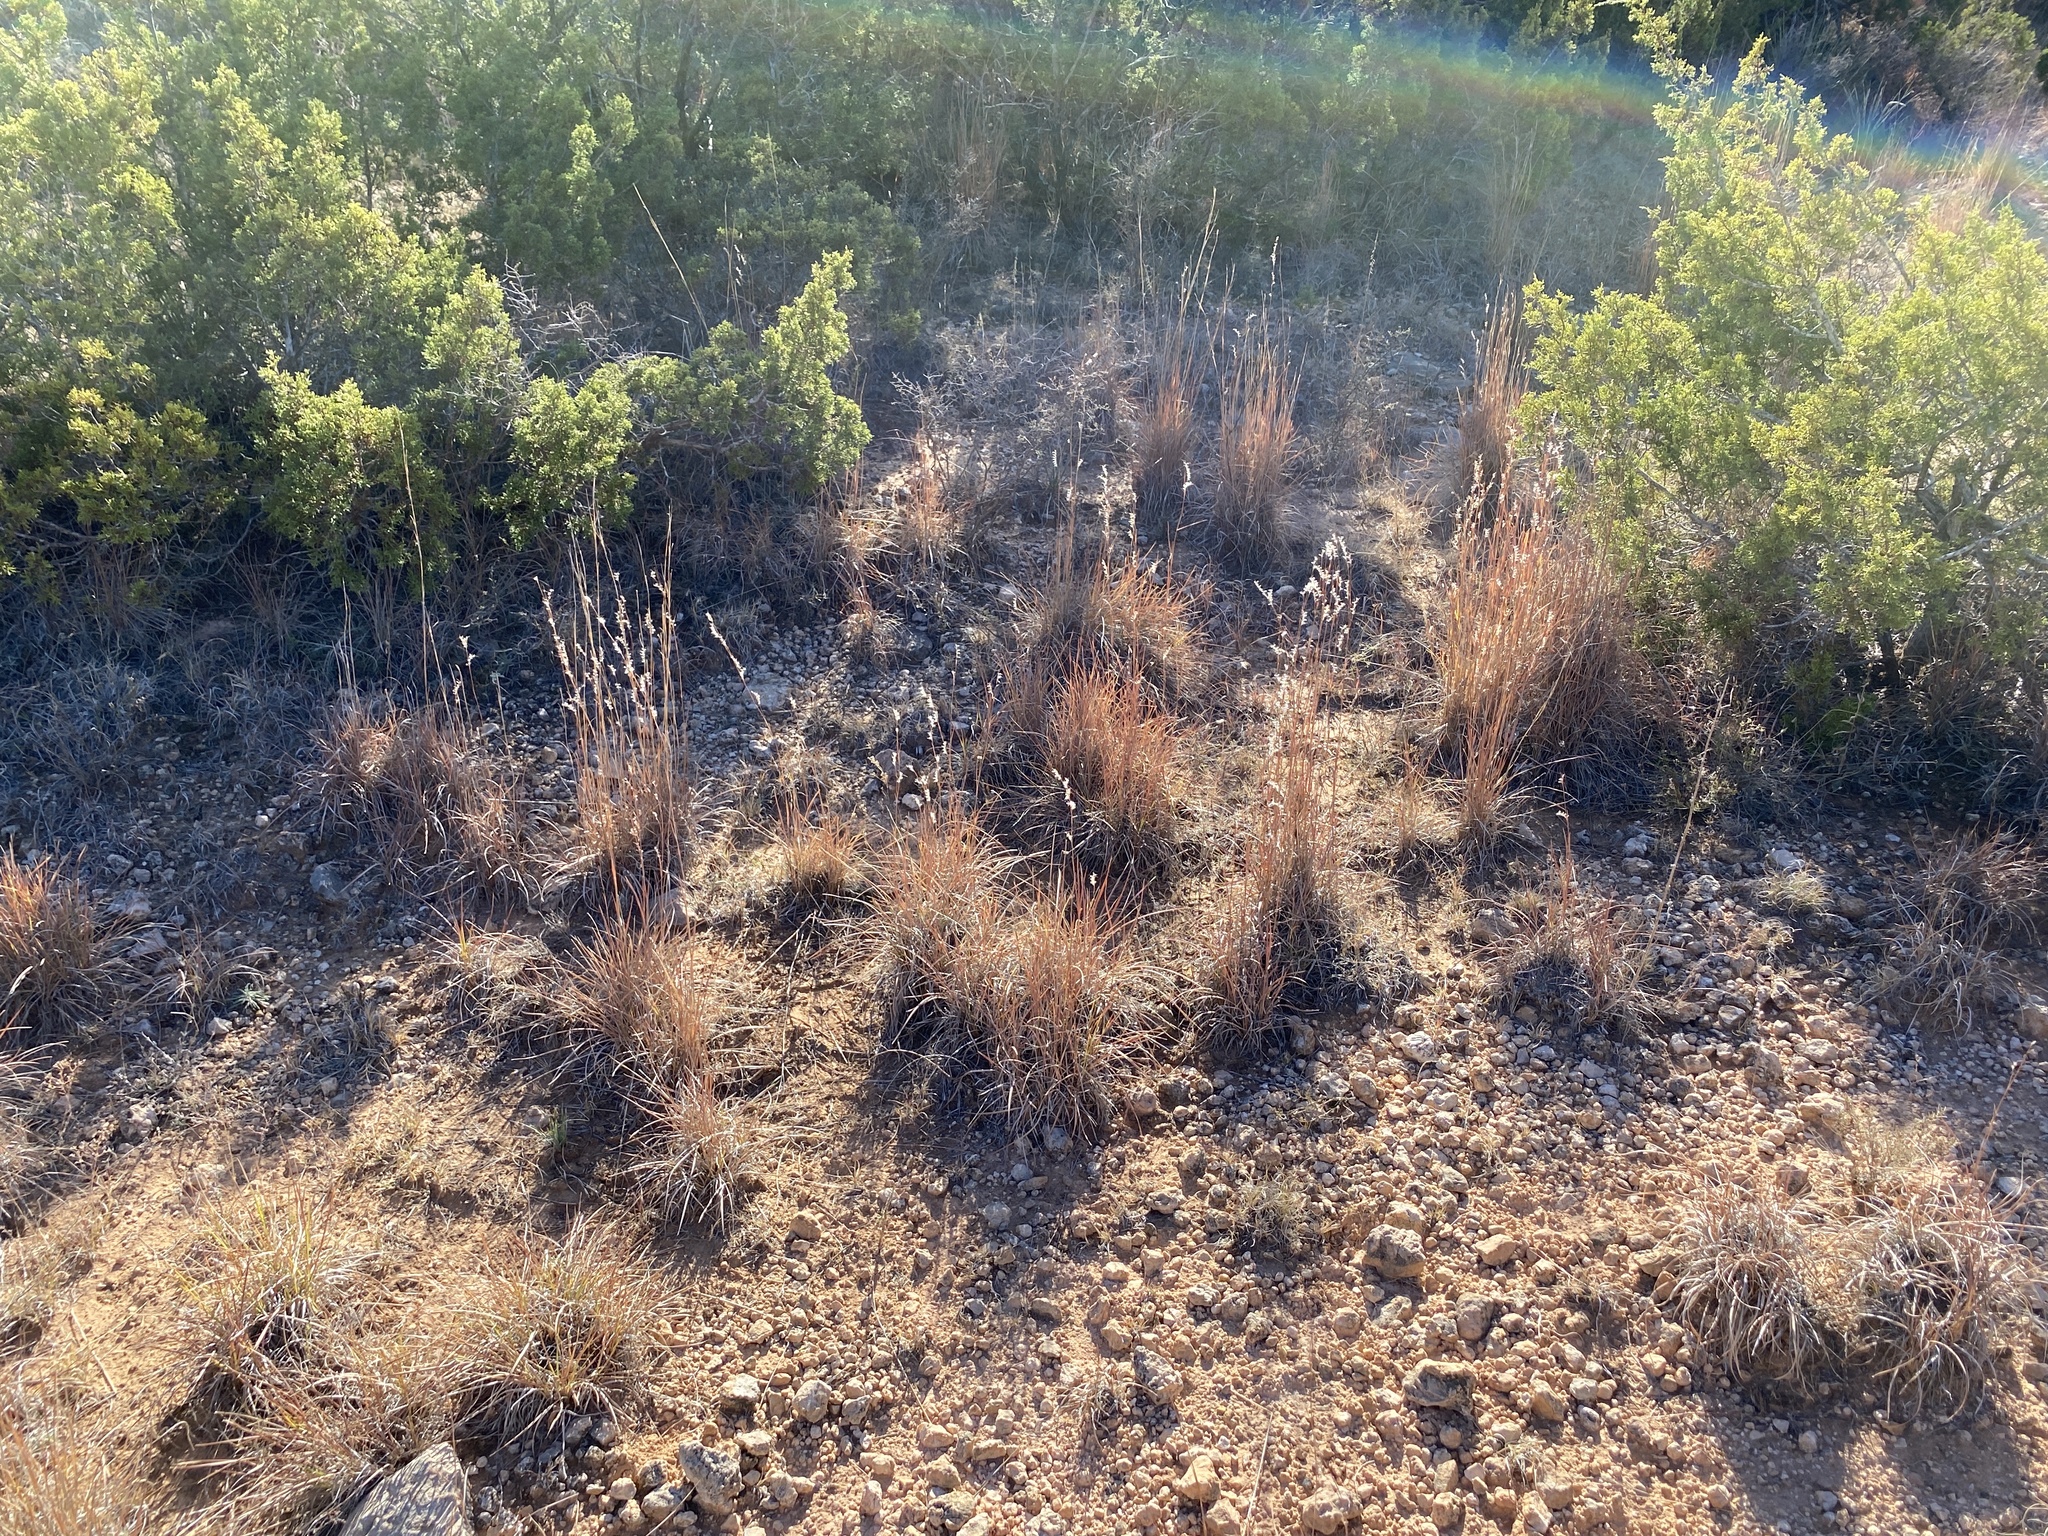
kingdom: Plantae
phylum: Tracheophyta
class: Liliopsida
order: Poales
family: Poaceae
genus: Schizachyrium
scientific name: Schizachyrium scoparium
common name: Little bluestem
